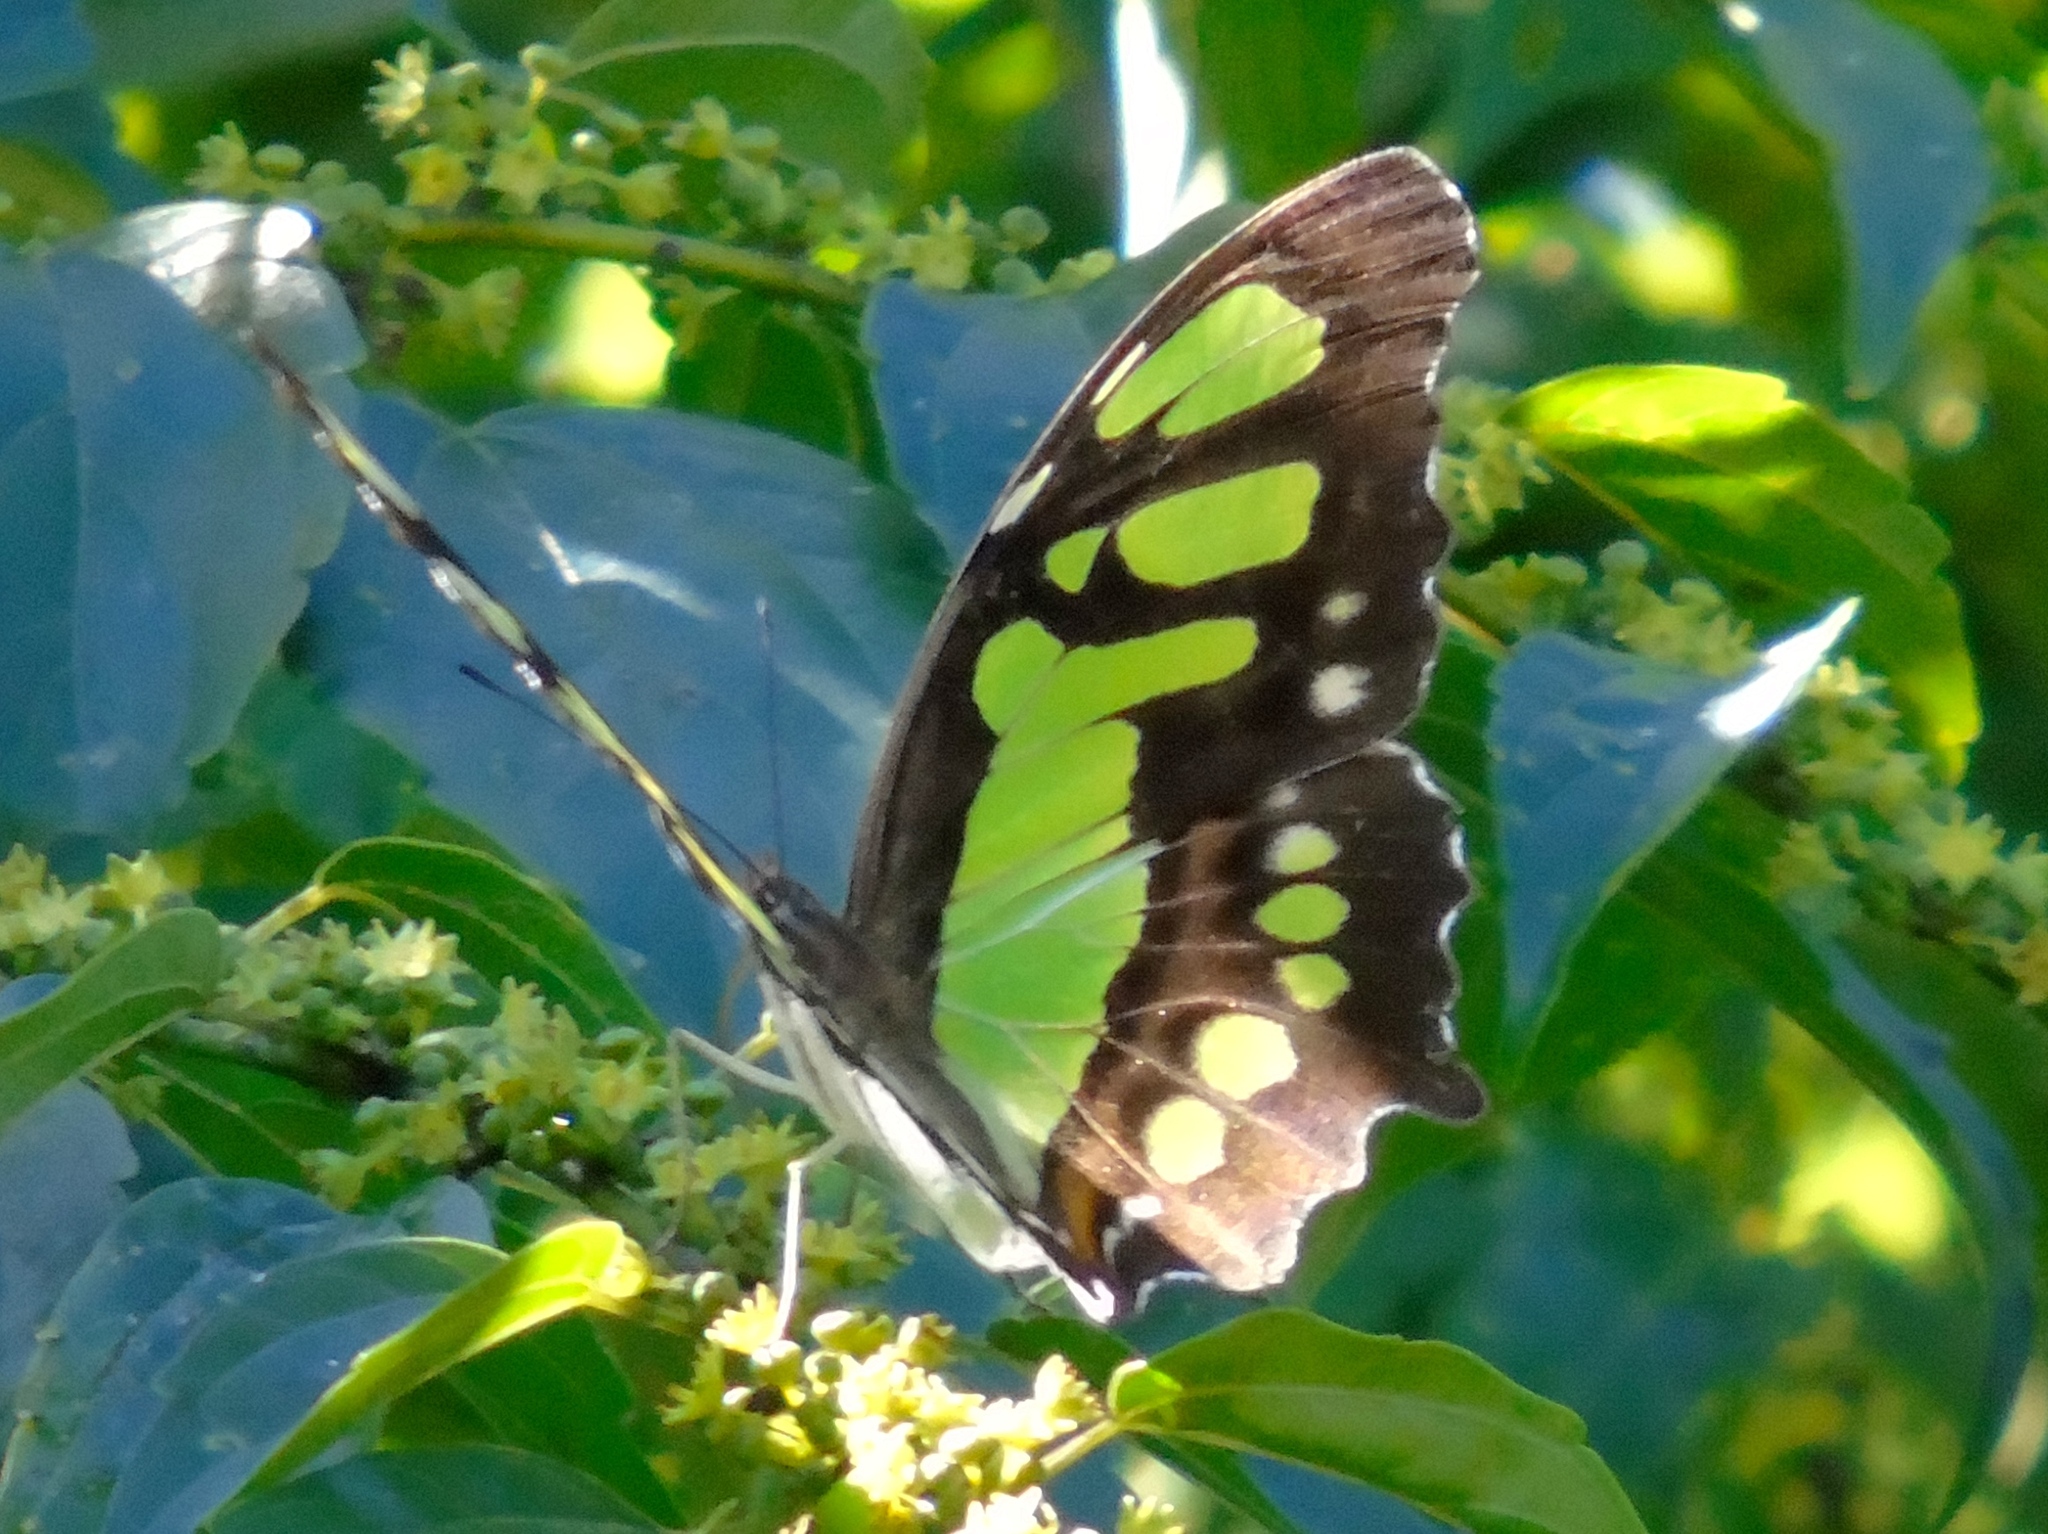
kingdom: Animalia
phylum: Arthropoda
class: Insecta
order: Lepidoptera
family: Nymphalidae
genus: Siproeta
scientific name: Siproeta stelenes
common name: Malachite
